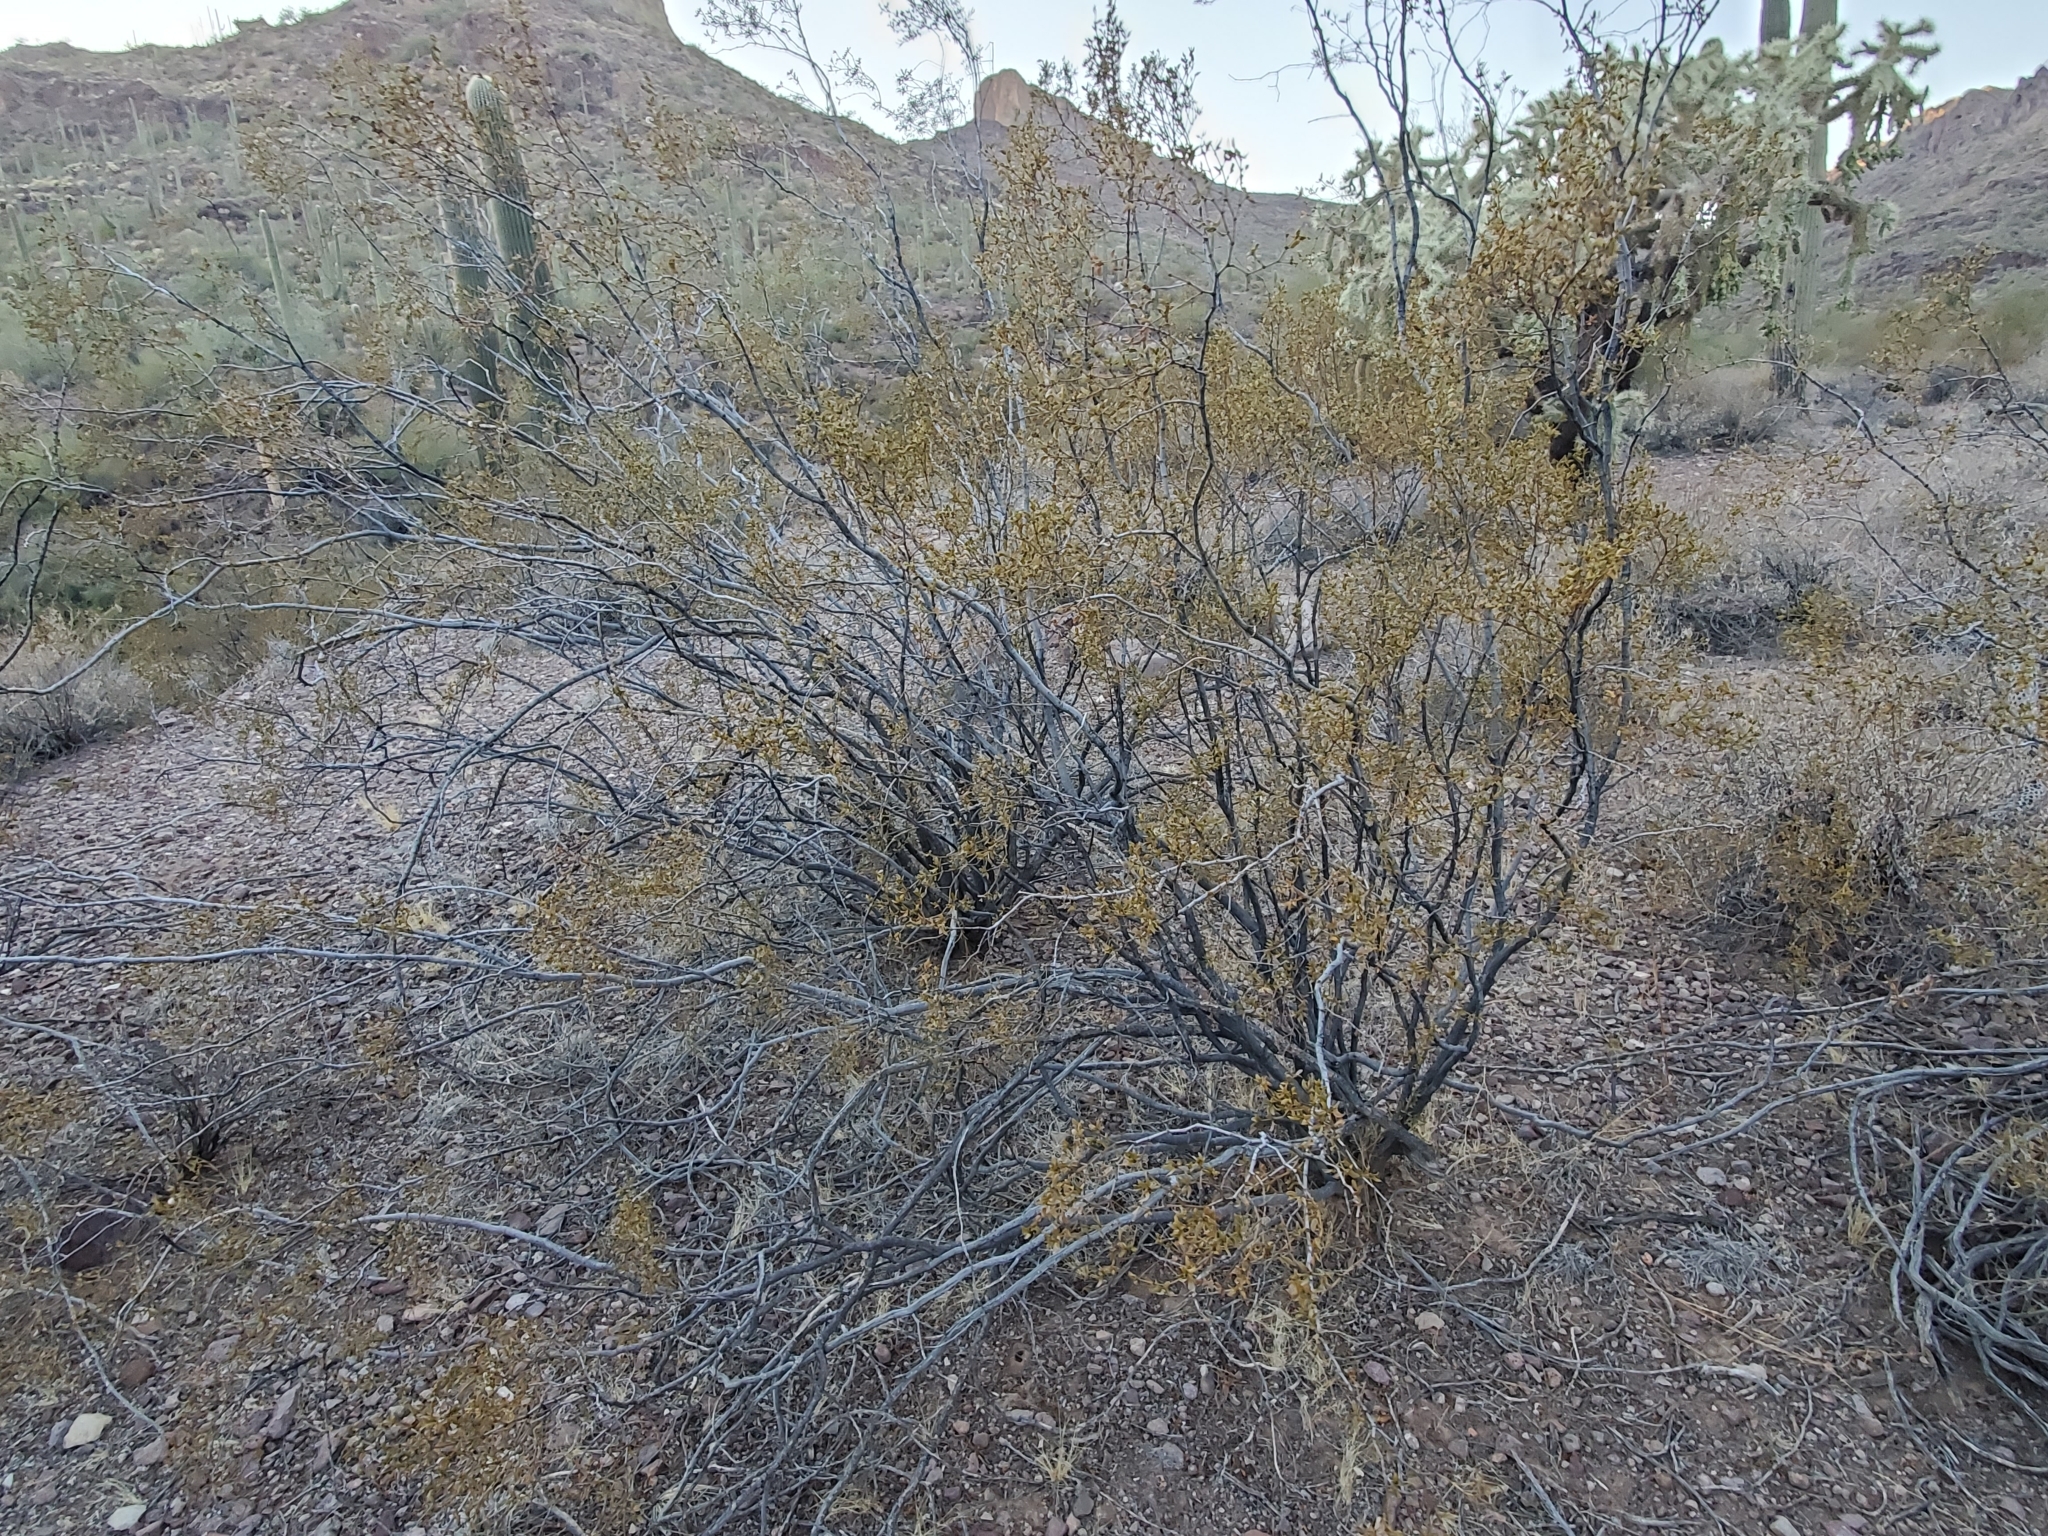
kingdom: Plantae
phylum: Tracheophyta
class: Magnoliopsida
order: Zygophyllales
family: Zygophyllaceae
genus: Larrea
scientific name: Larrea tridentata
